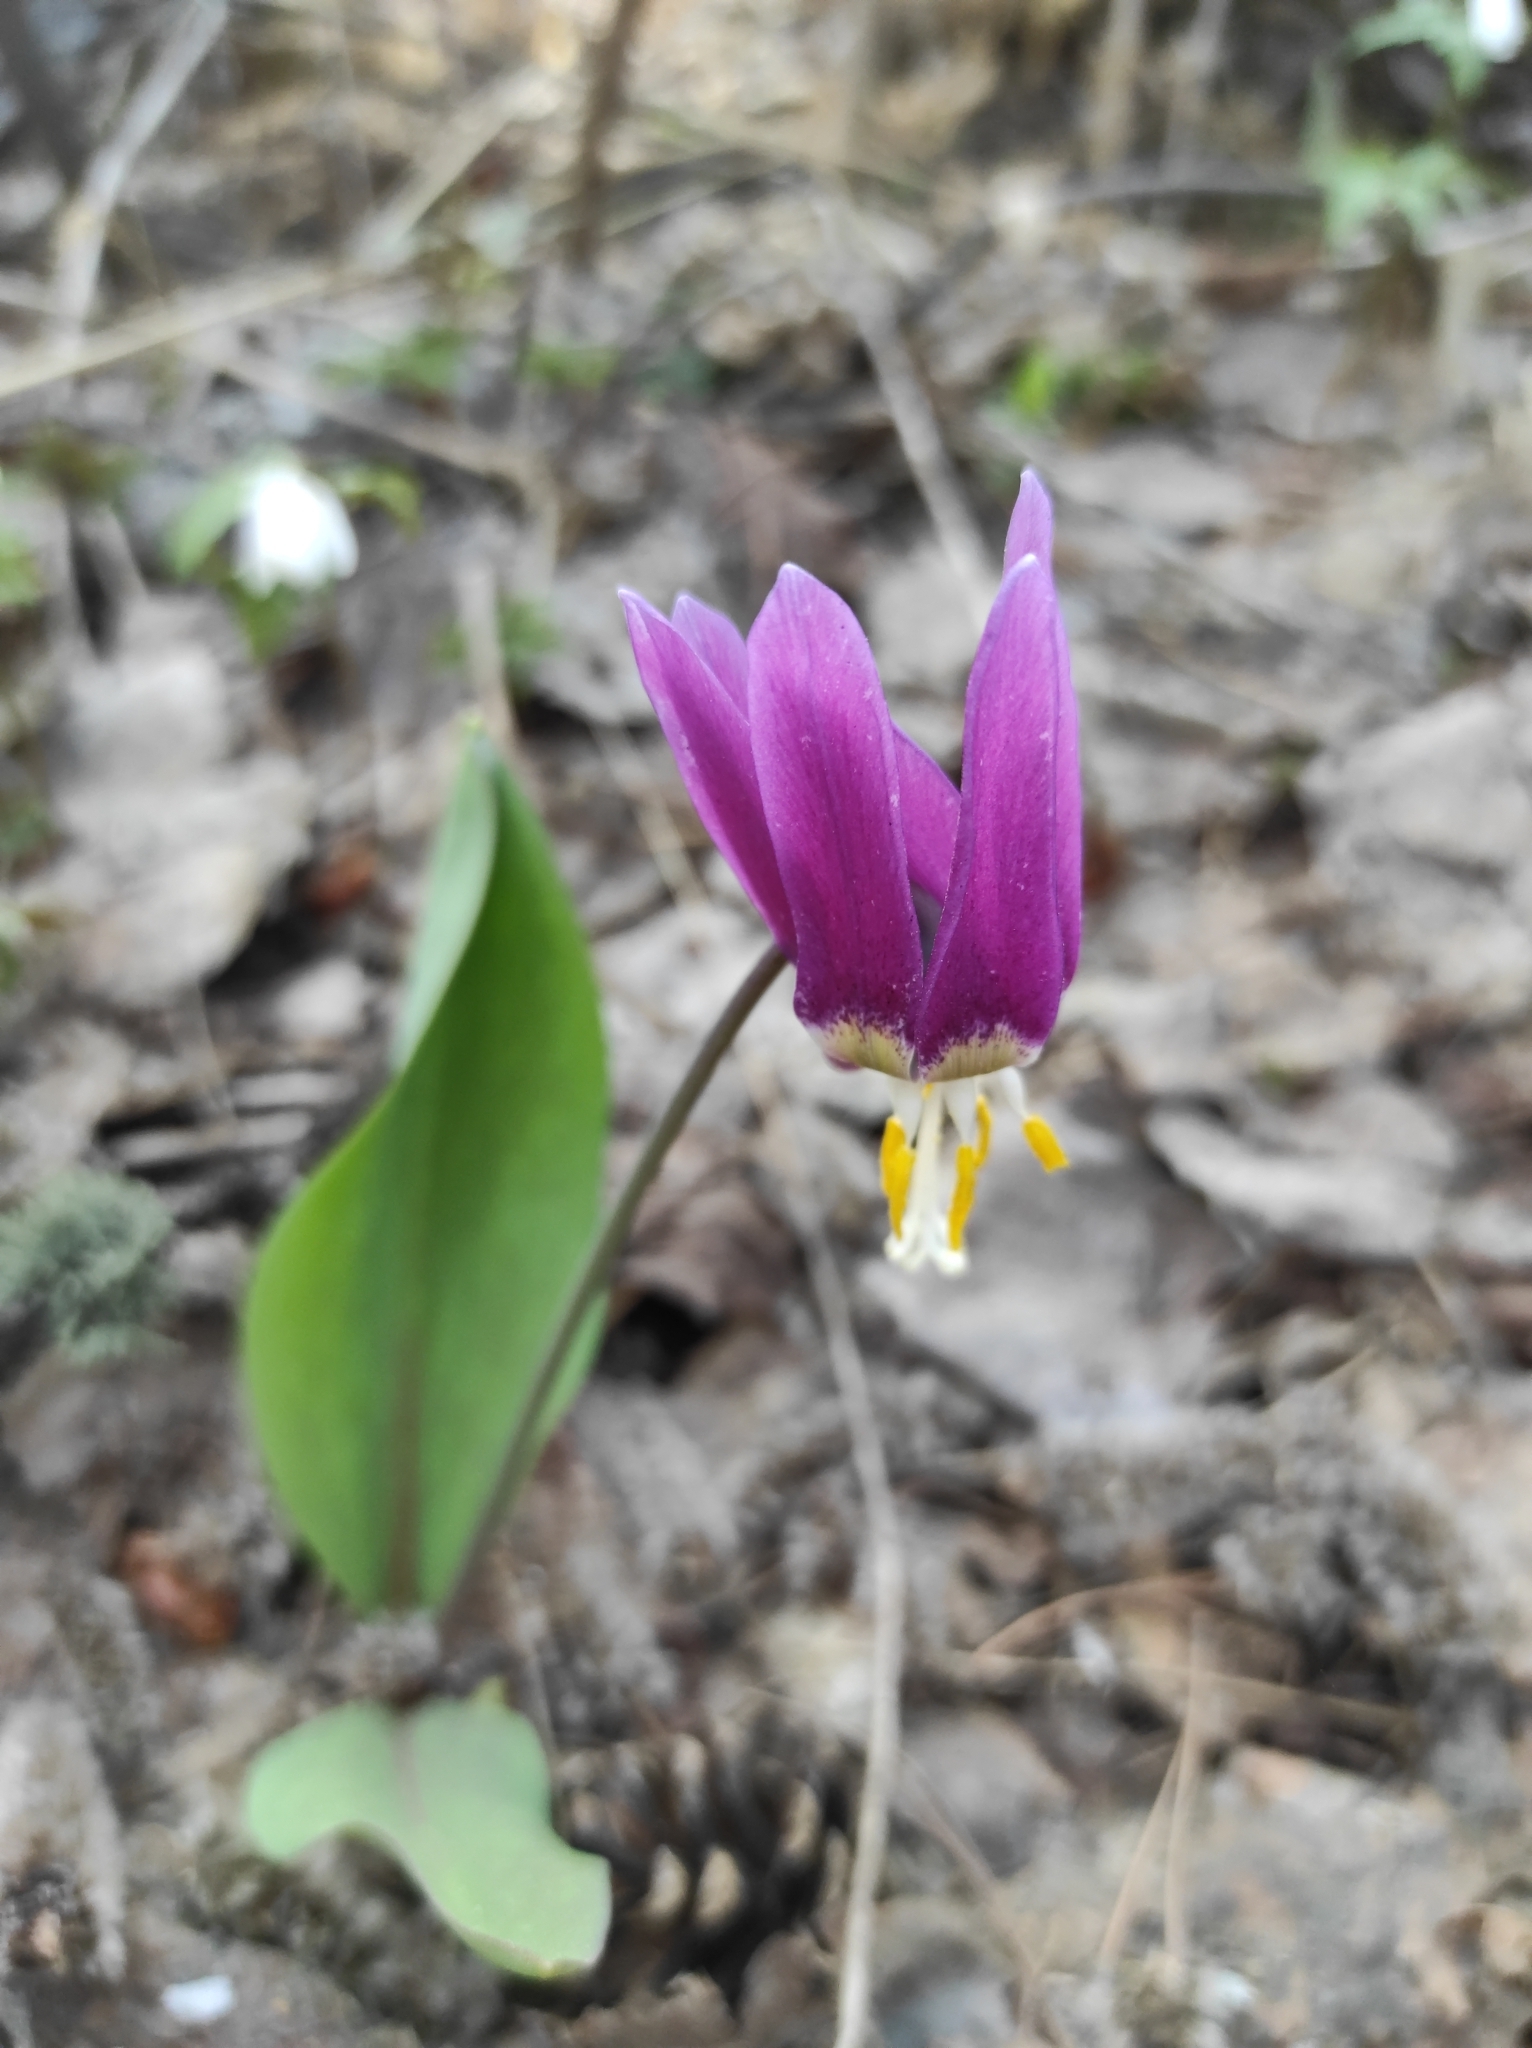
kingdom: Plantae
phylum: Tracheophyta
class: Liliopsida
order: Liliales
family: Liliaceae
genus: Erythronium
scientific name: Erythronium sibiricum
